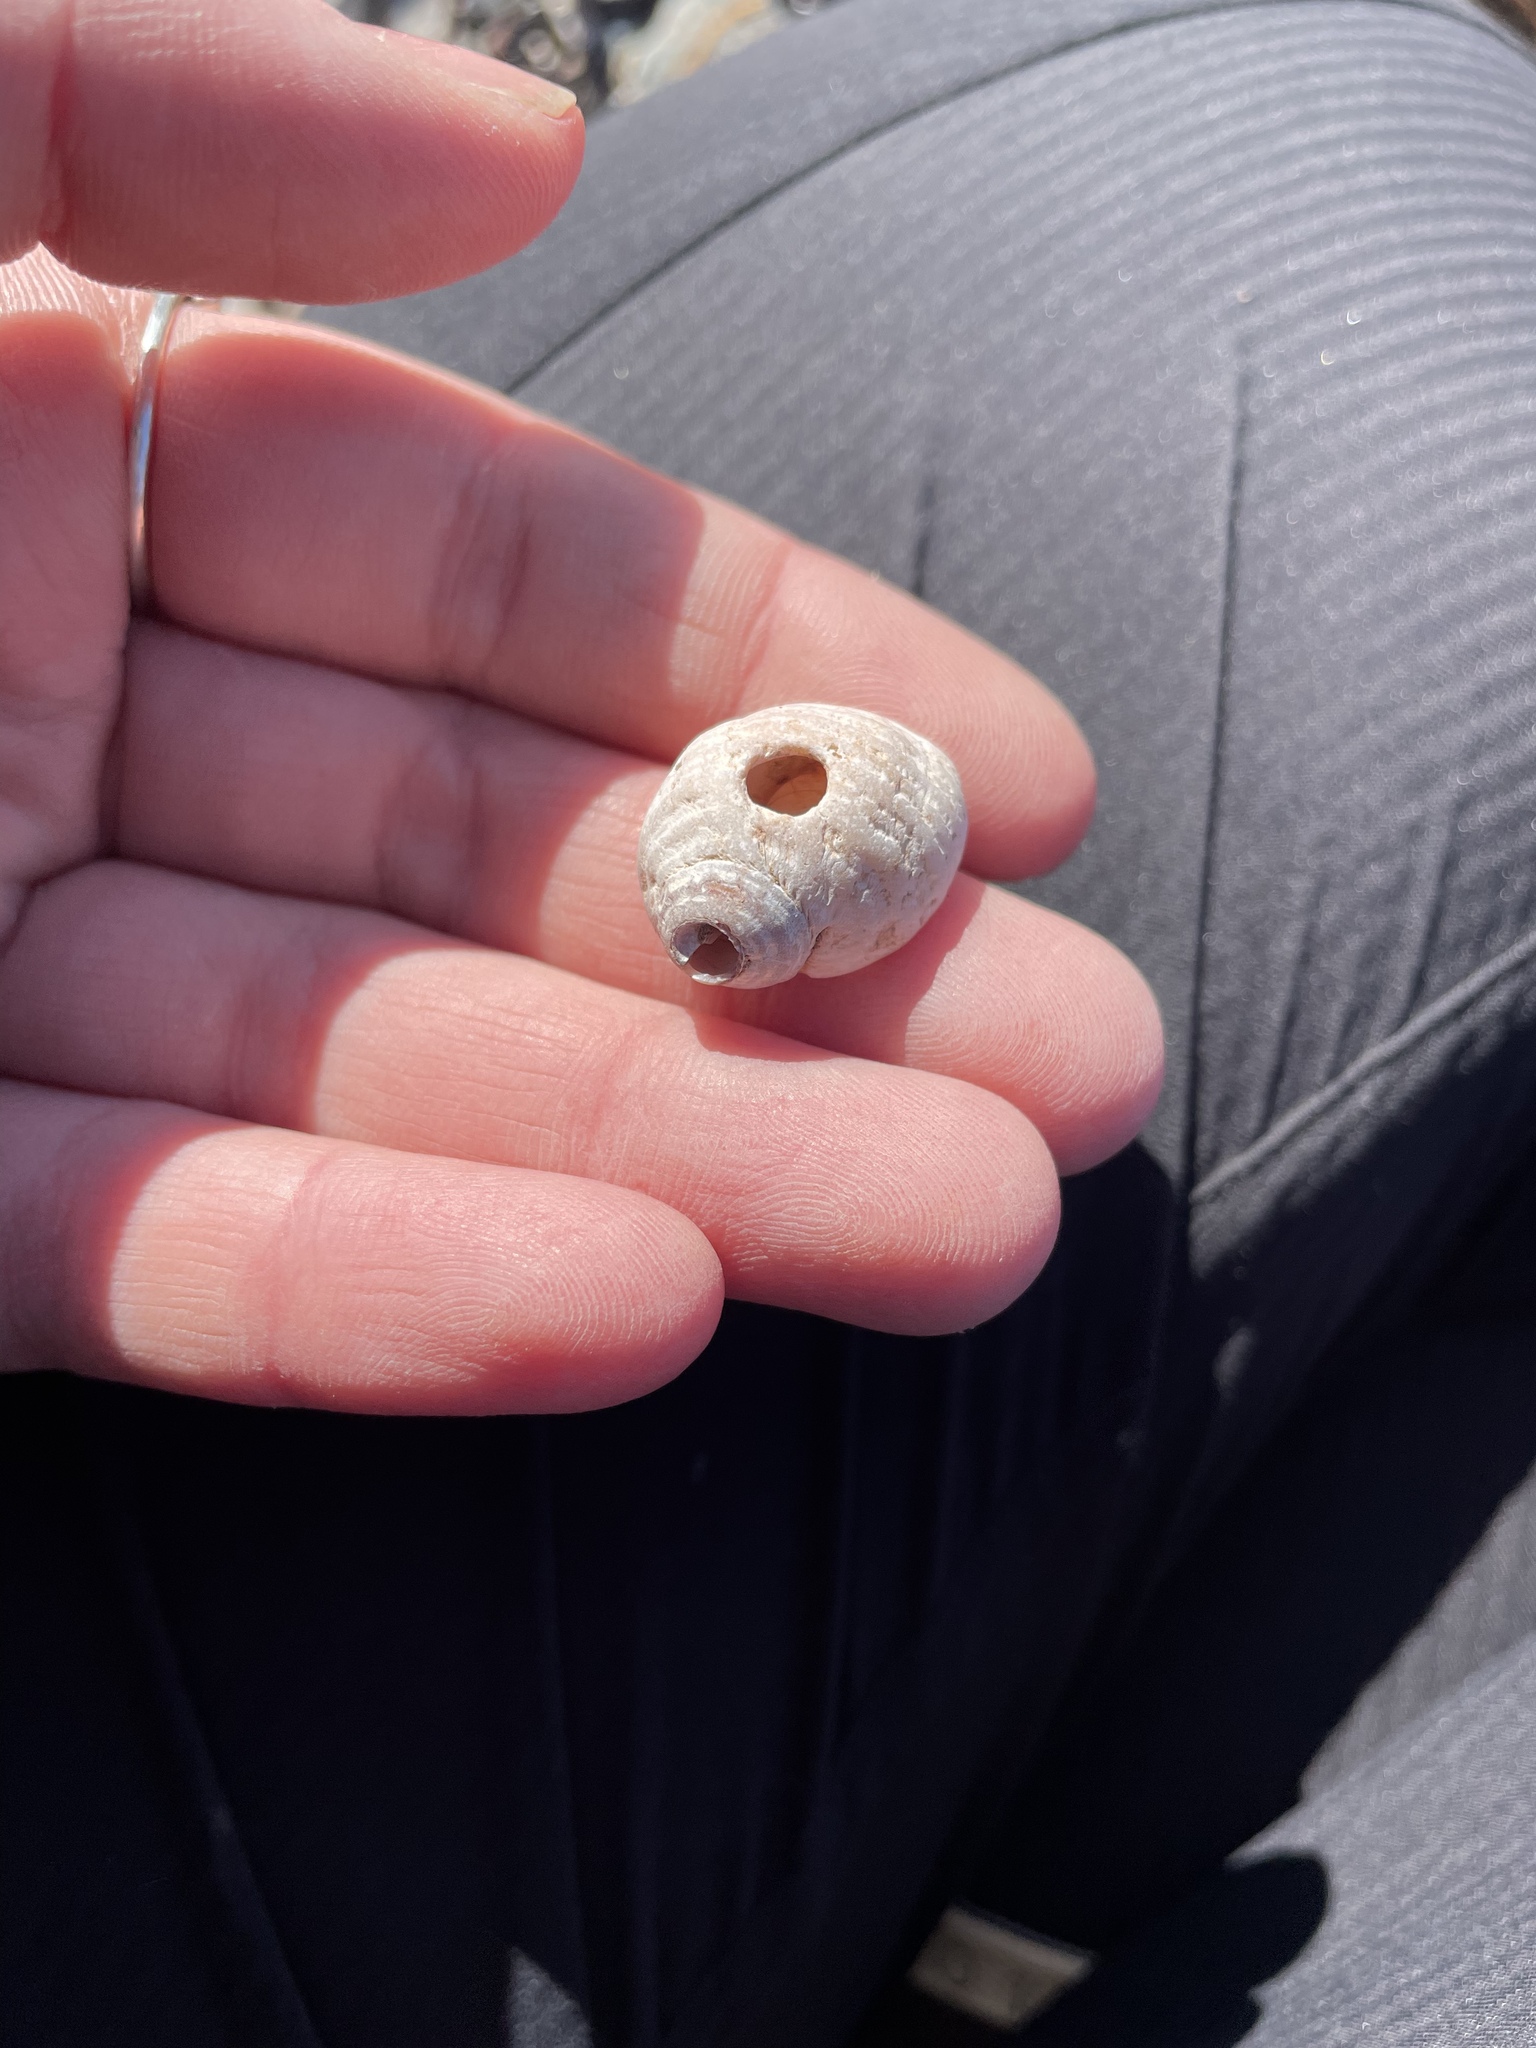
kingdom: Animalia
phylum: Mollusca
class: Gastropoda
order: Neogastropoda
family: Muricidae
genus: Nucella
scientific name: Nucella lapillus
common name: Dog whelk
